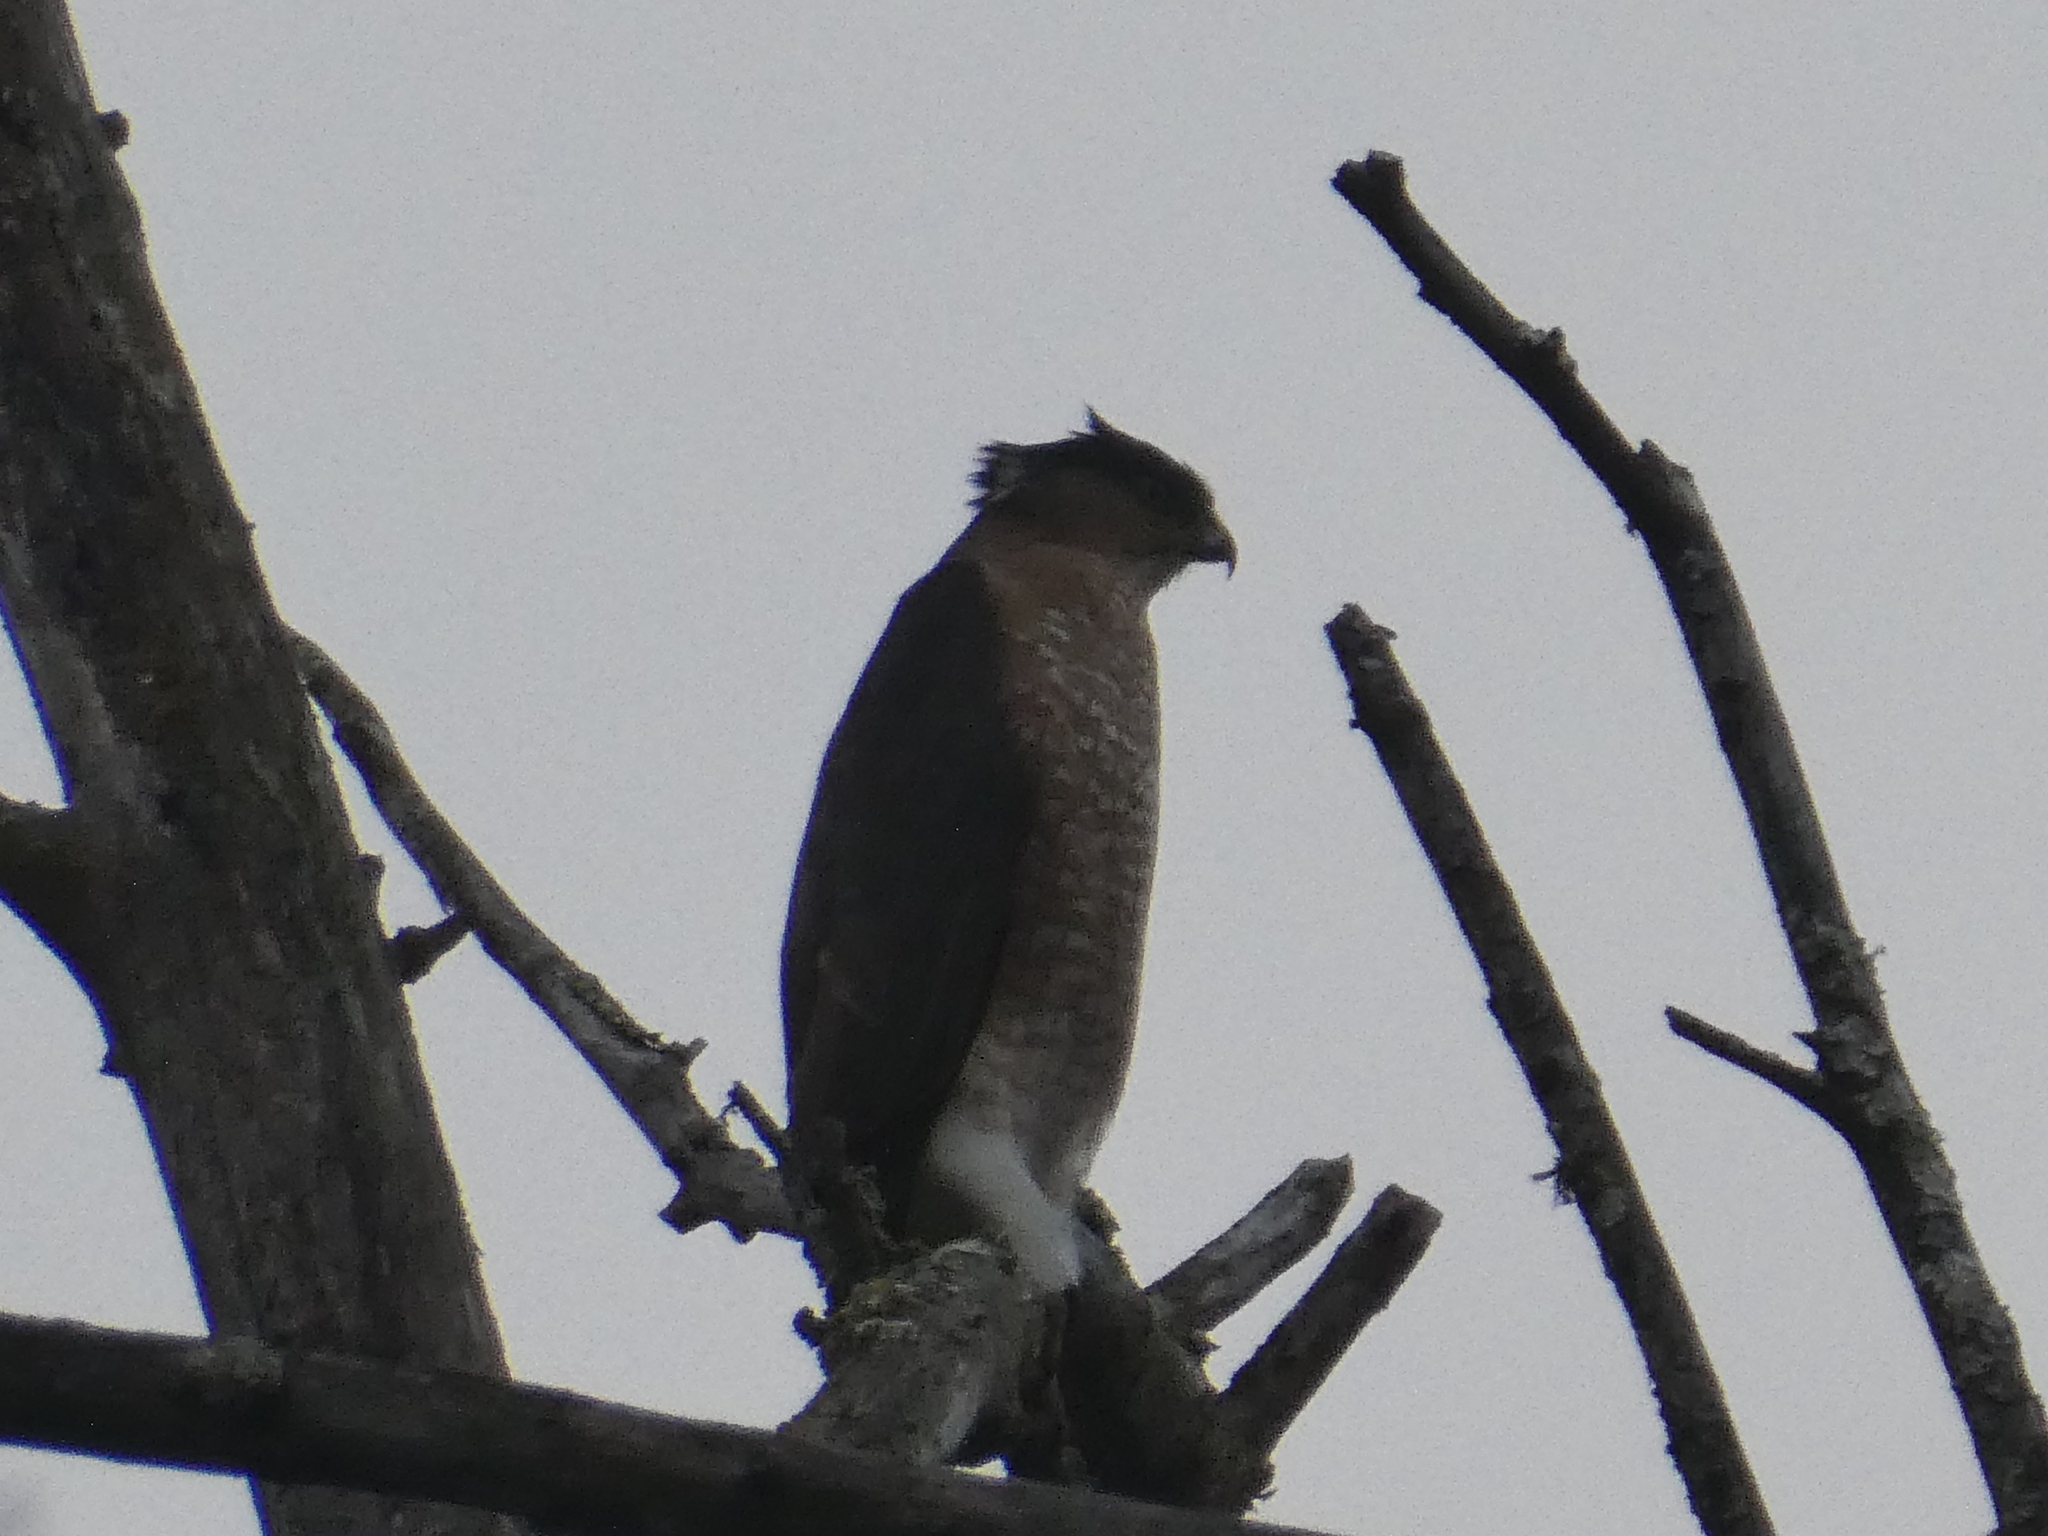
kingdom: Animalia
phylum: Chordata
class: Aves
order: Accipitriformes
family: Accipitridae
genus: Accipiter
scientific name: Accipiter cooperii
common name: Cooper's hawk
